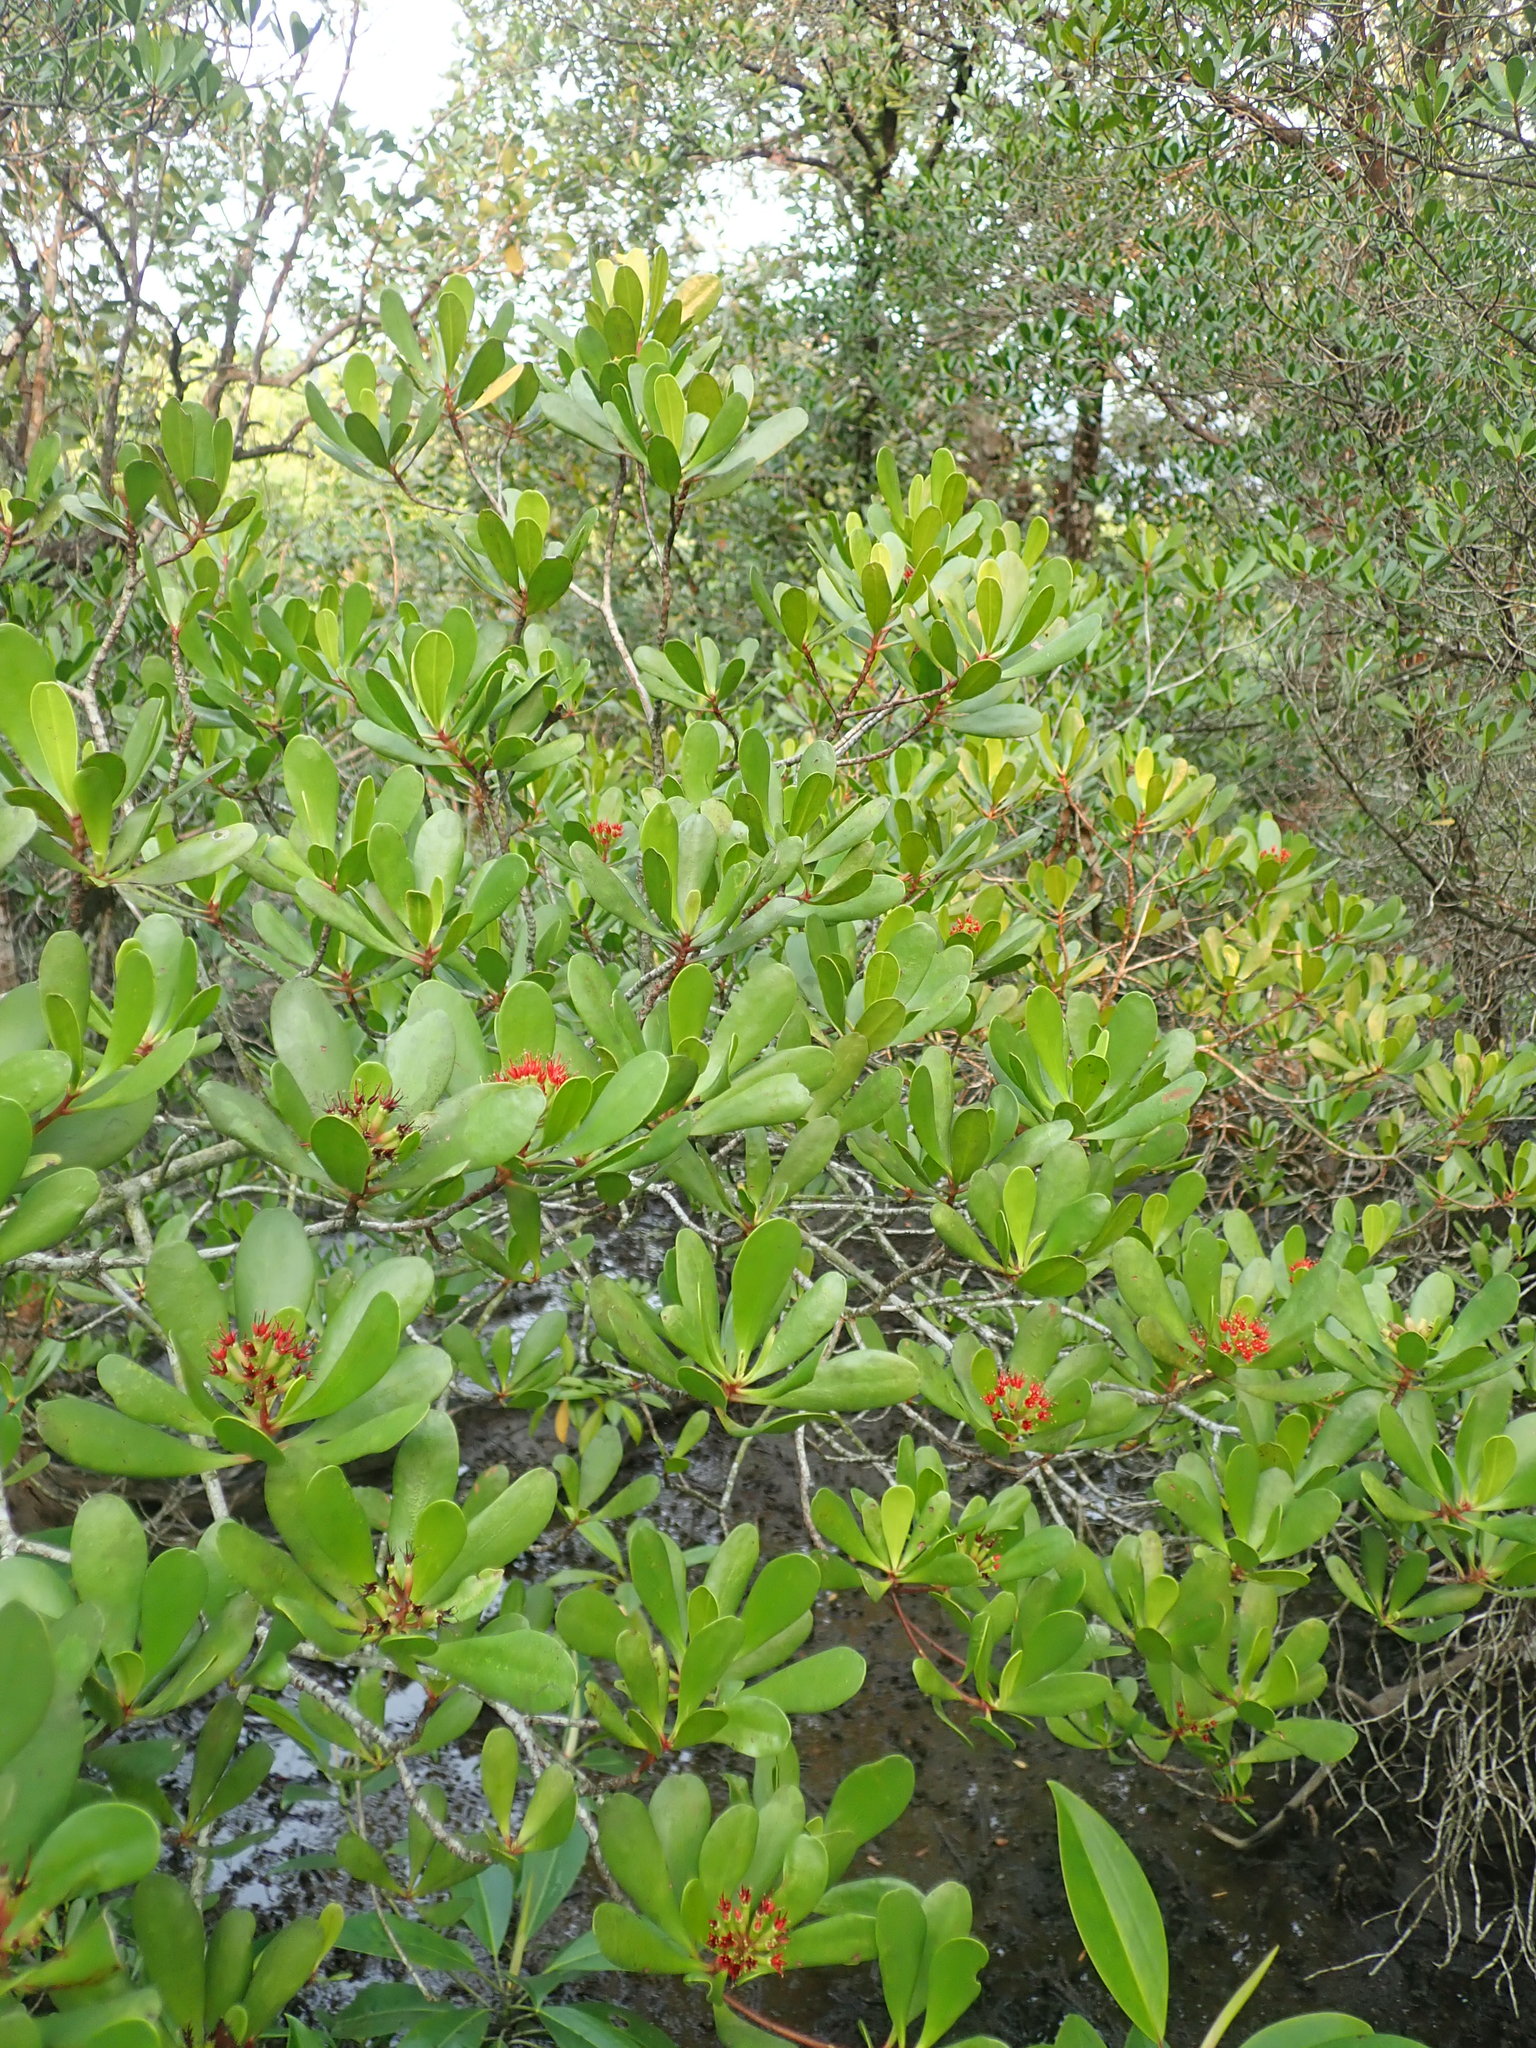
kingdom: Plantae
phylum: Tracheophyta
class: Magnoliopsida
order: Myrtales
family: Combretaceae
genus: Lumnitzera
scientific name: Lumnitzera littorea
